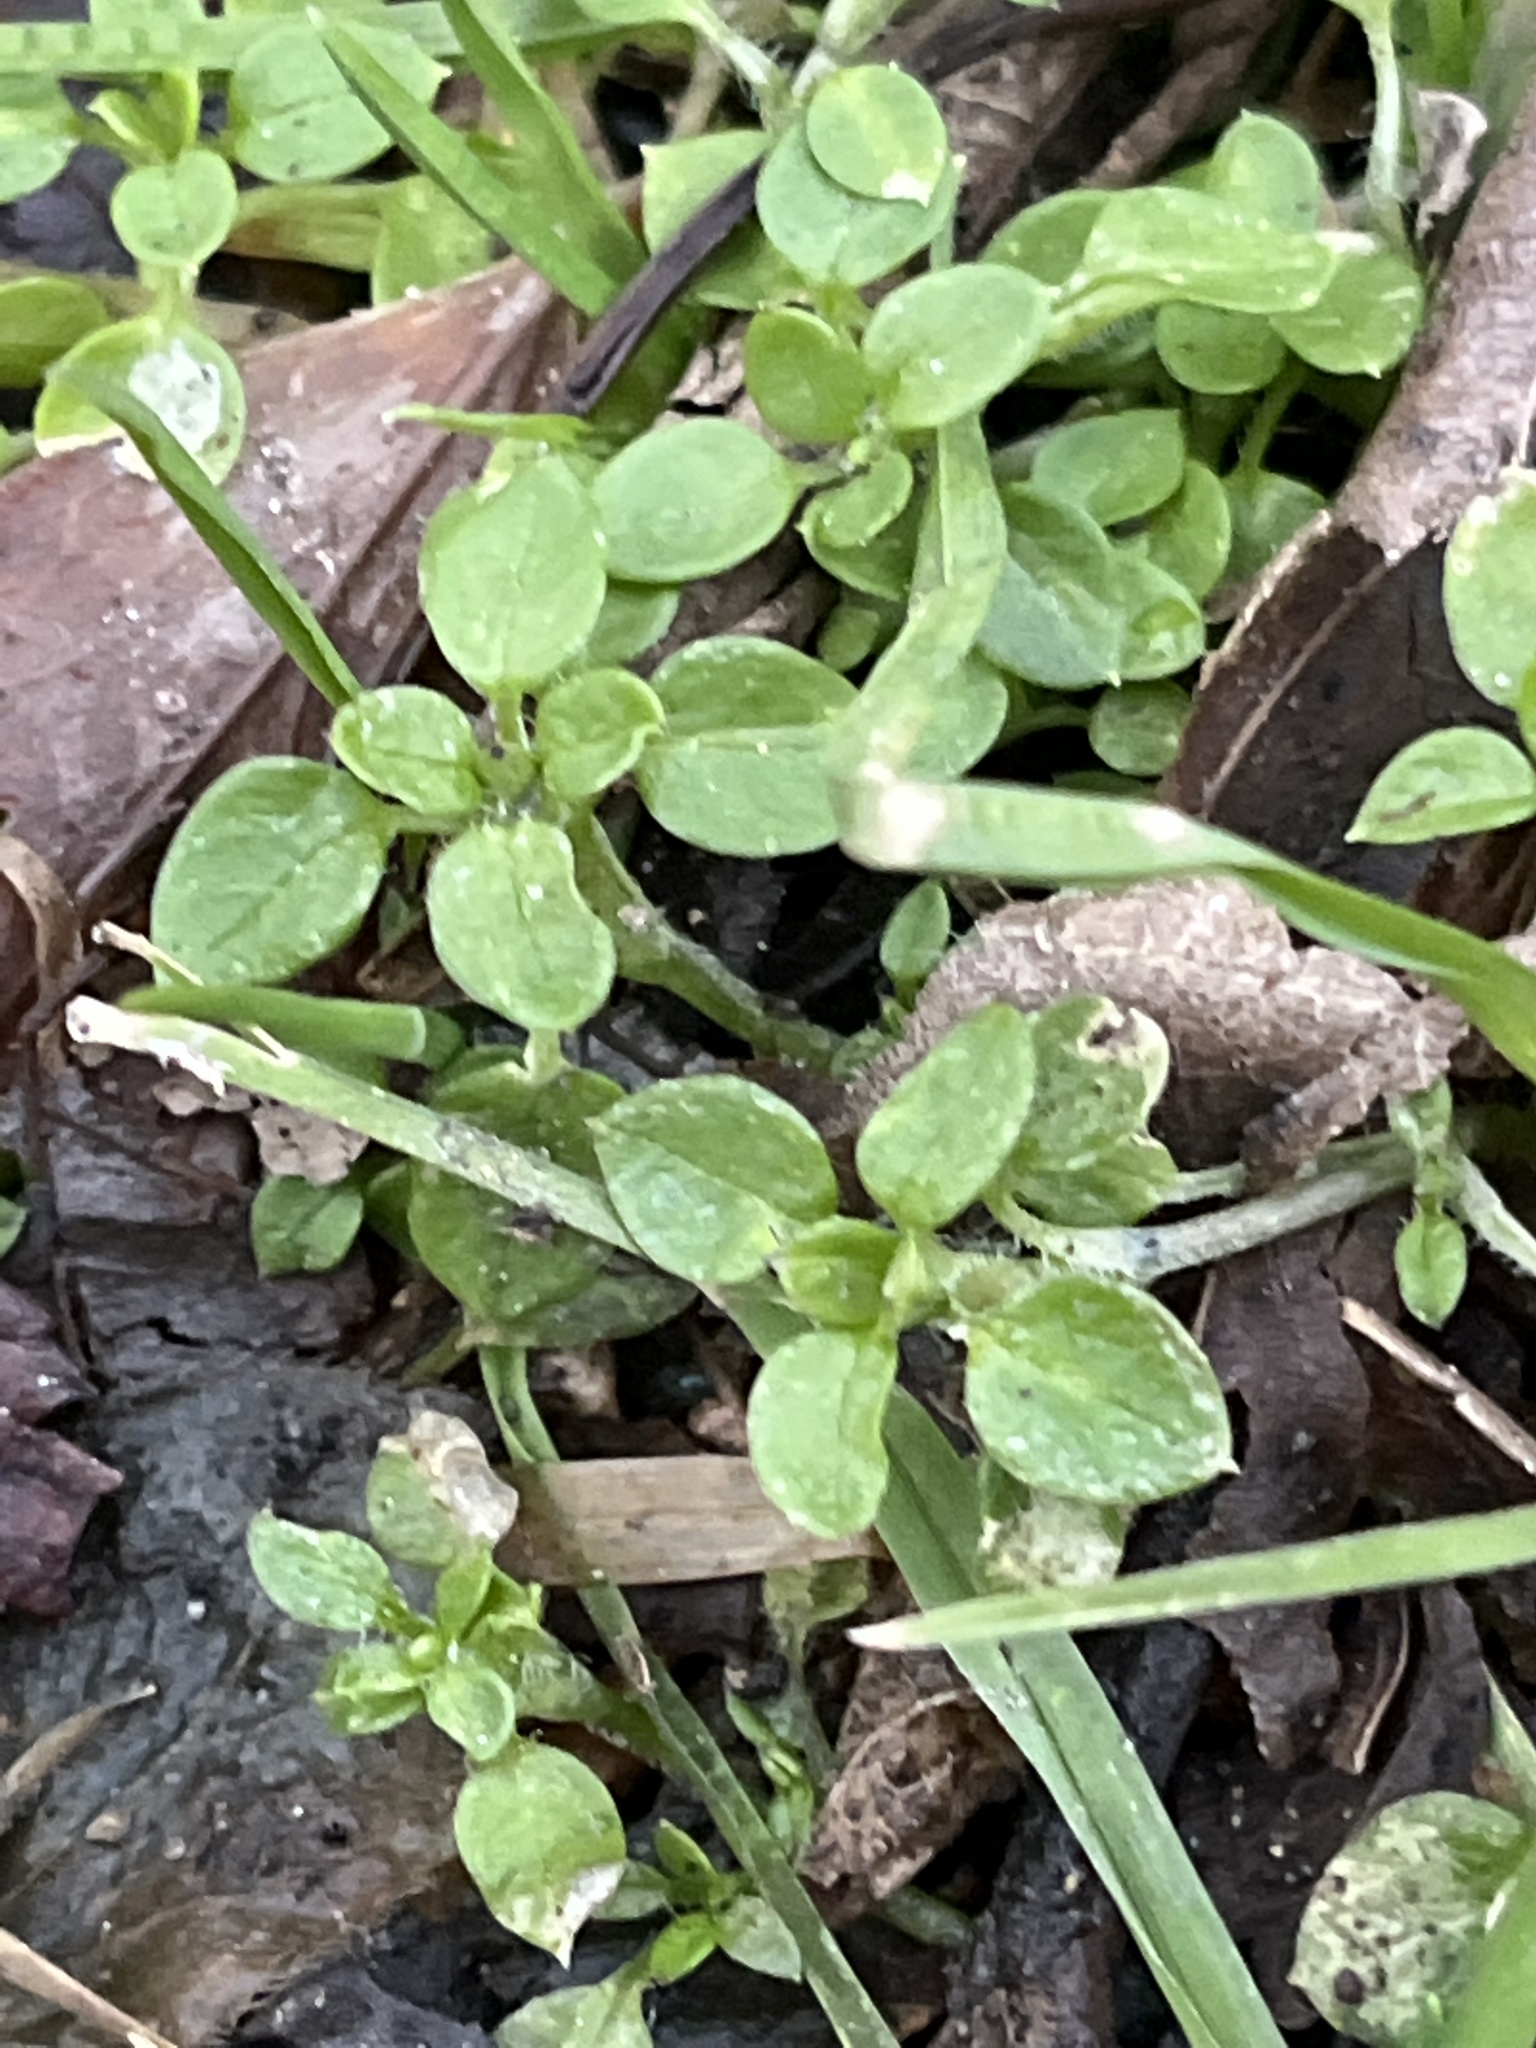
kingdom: Plantae
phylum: Tracheophyta
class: Magnoliopsida
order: Caryophyllales
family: Caryophyllaceae
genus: Stellaria
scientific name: Stellaria media
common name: Common chickweed
